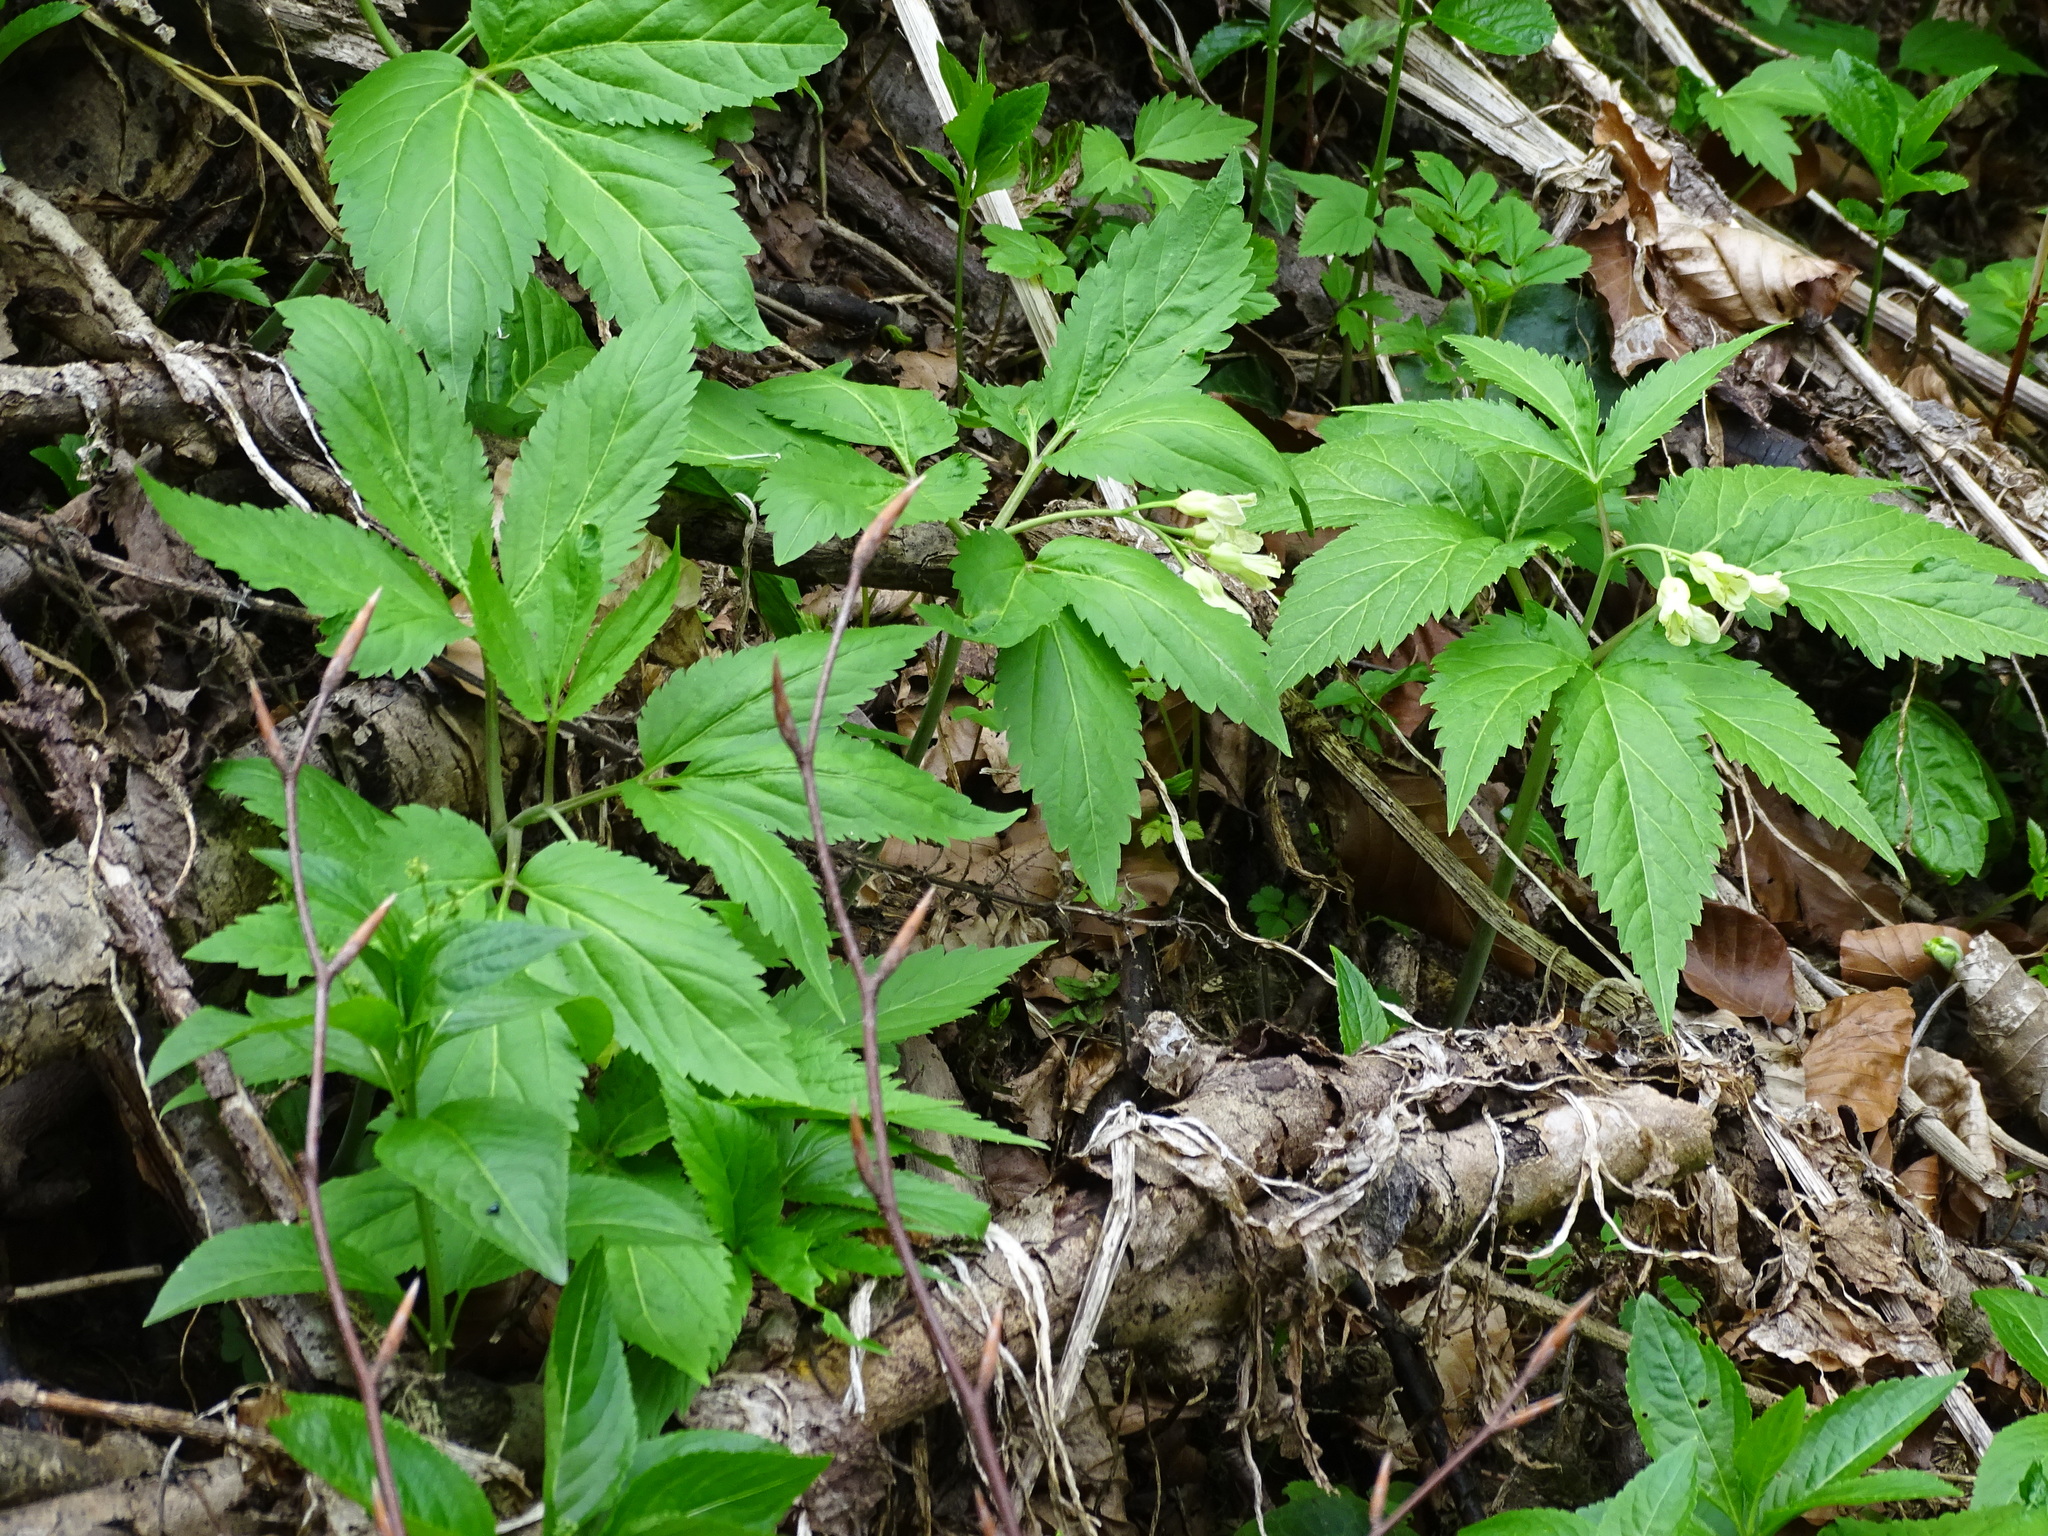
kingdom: Plantae
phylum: Tracheophyta
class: Magnoliopsida
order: Brassicales
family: Brassicaceae
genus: Cardamine
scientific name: Cardamine enneaphyllos
